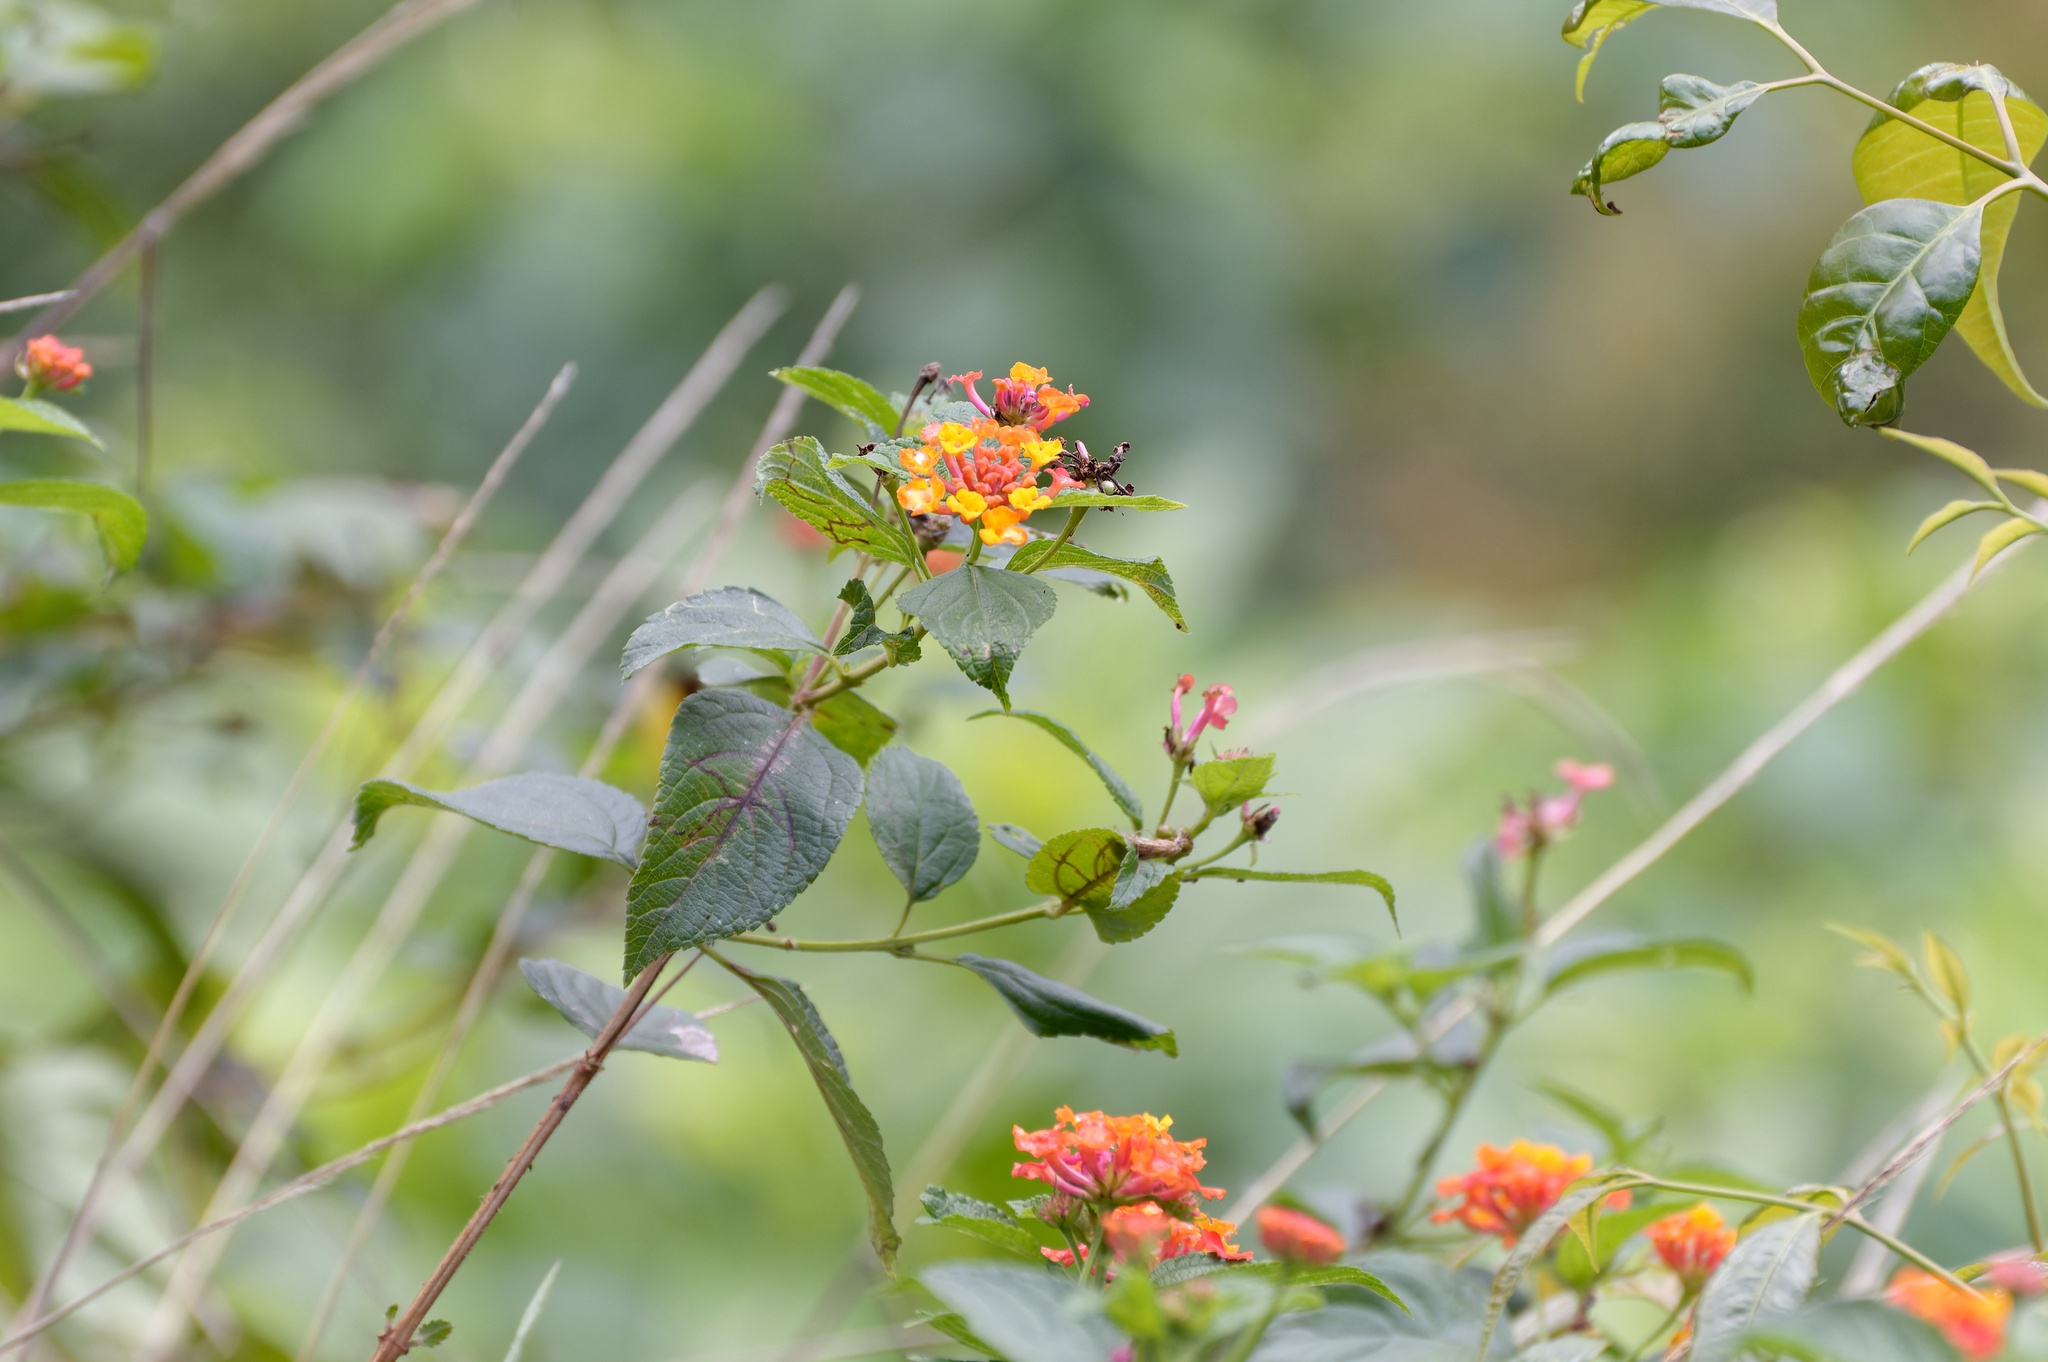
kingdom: Plantae
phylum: Tracheophyta
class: Magnoliopsida
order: Lamiales
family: Verbenaceae
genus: Lantana
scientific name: Lantana camara
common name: Lantana
